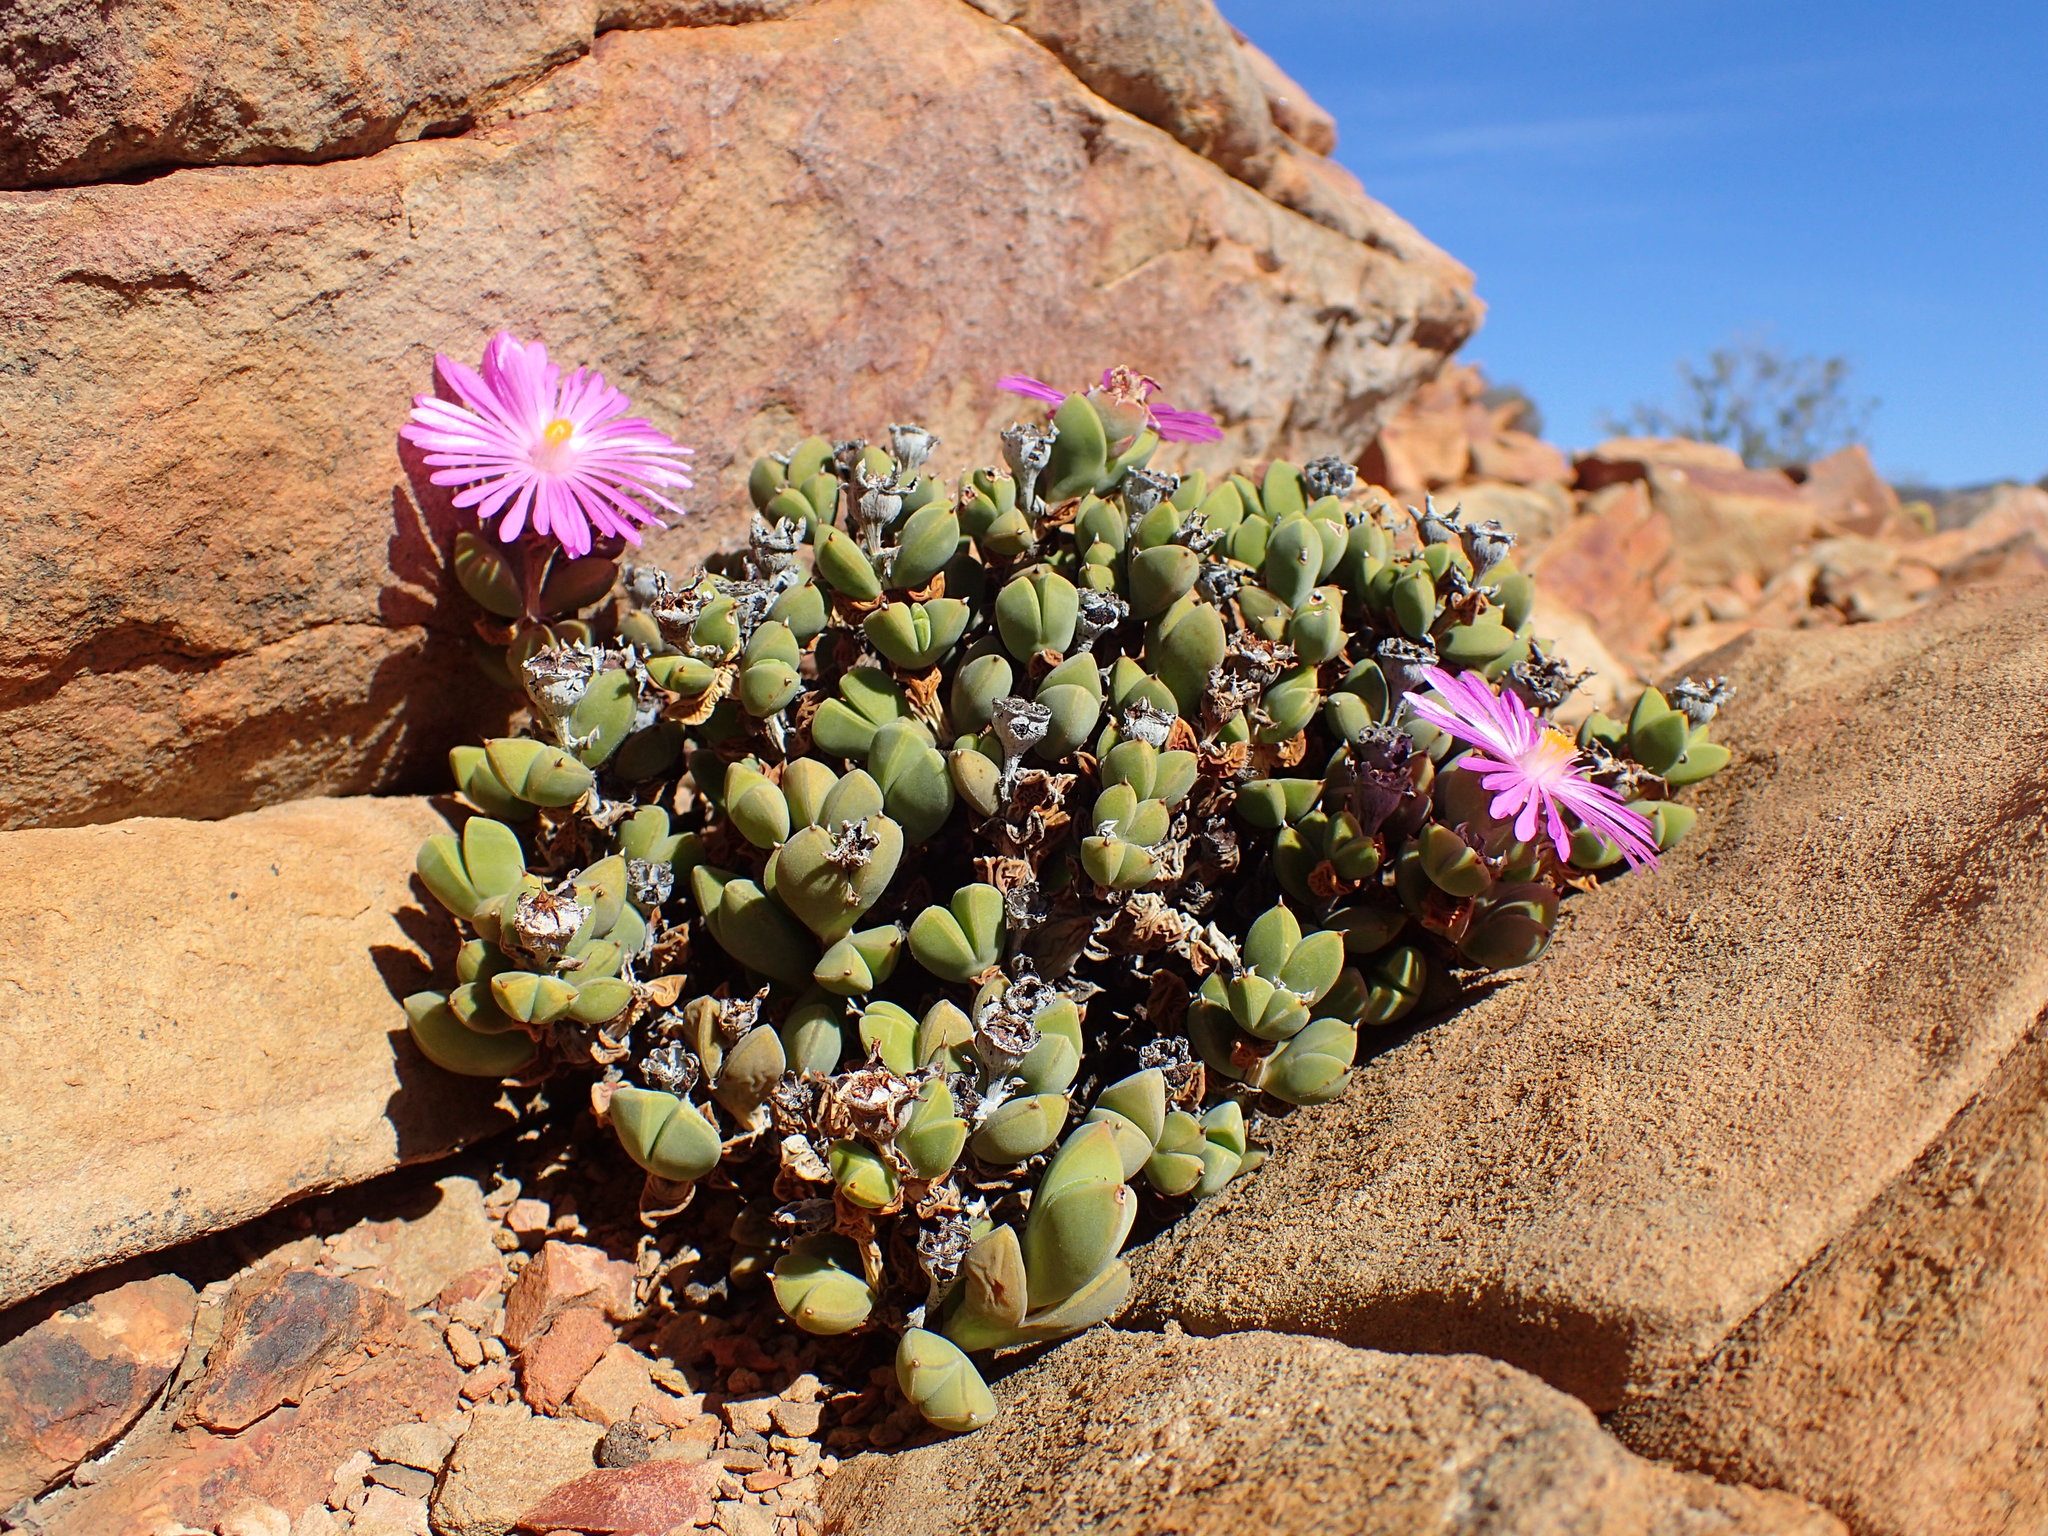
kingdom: Plantae
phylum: Tracheophyta
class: Magnoliopsida
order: Caryophyllales
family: Aizoaceae
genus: Braunsia
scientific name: Braunsia apiculata
